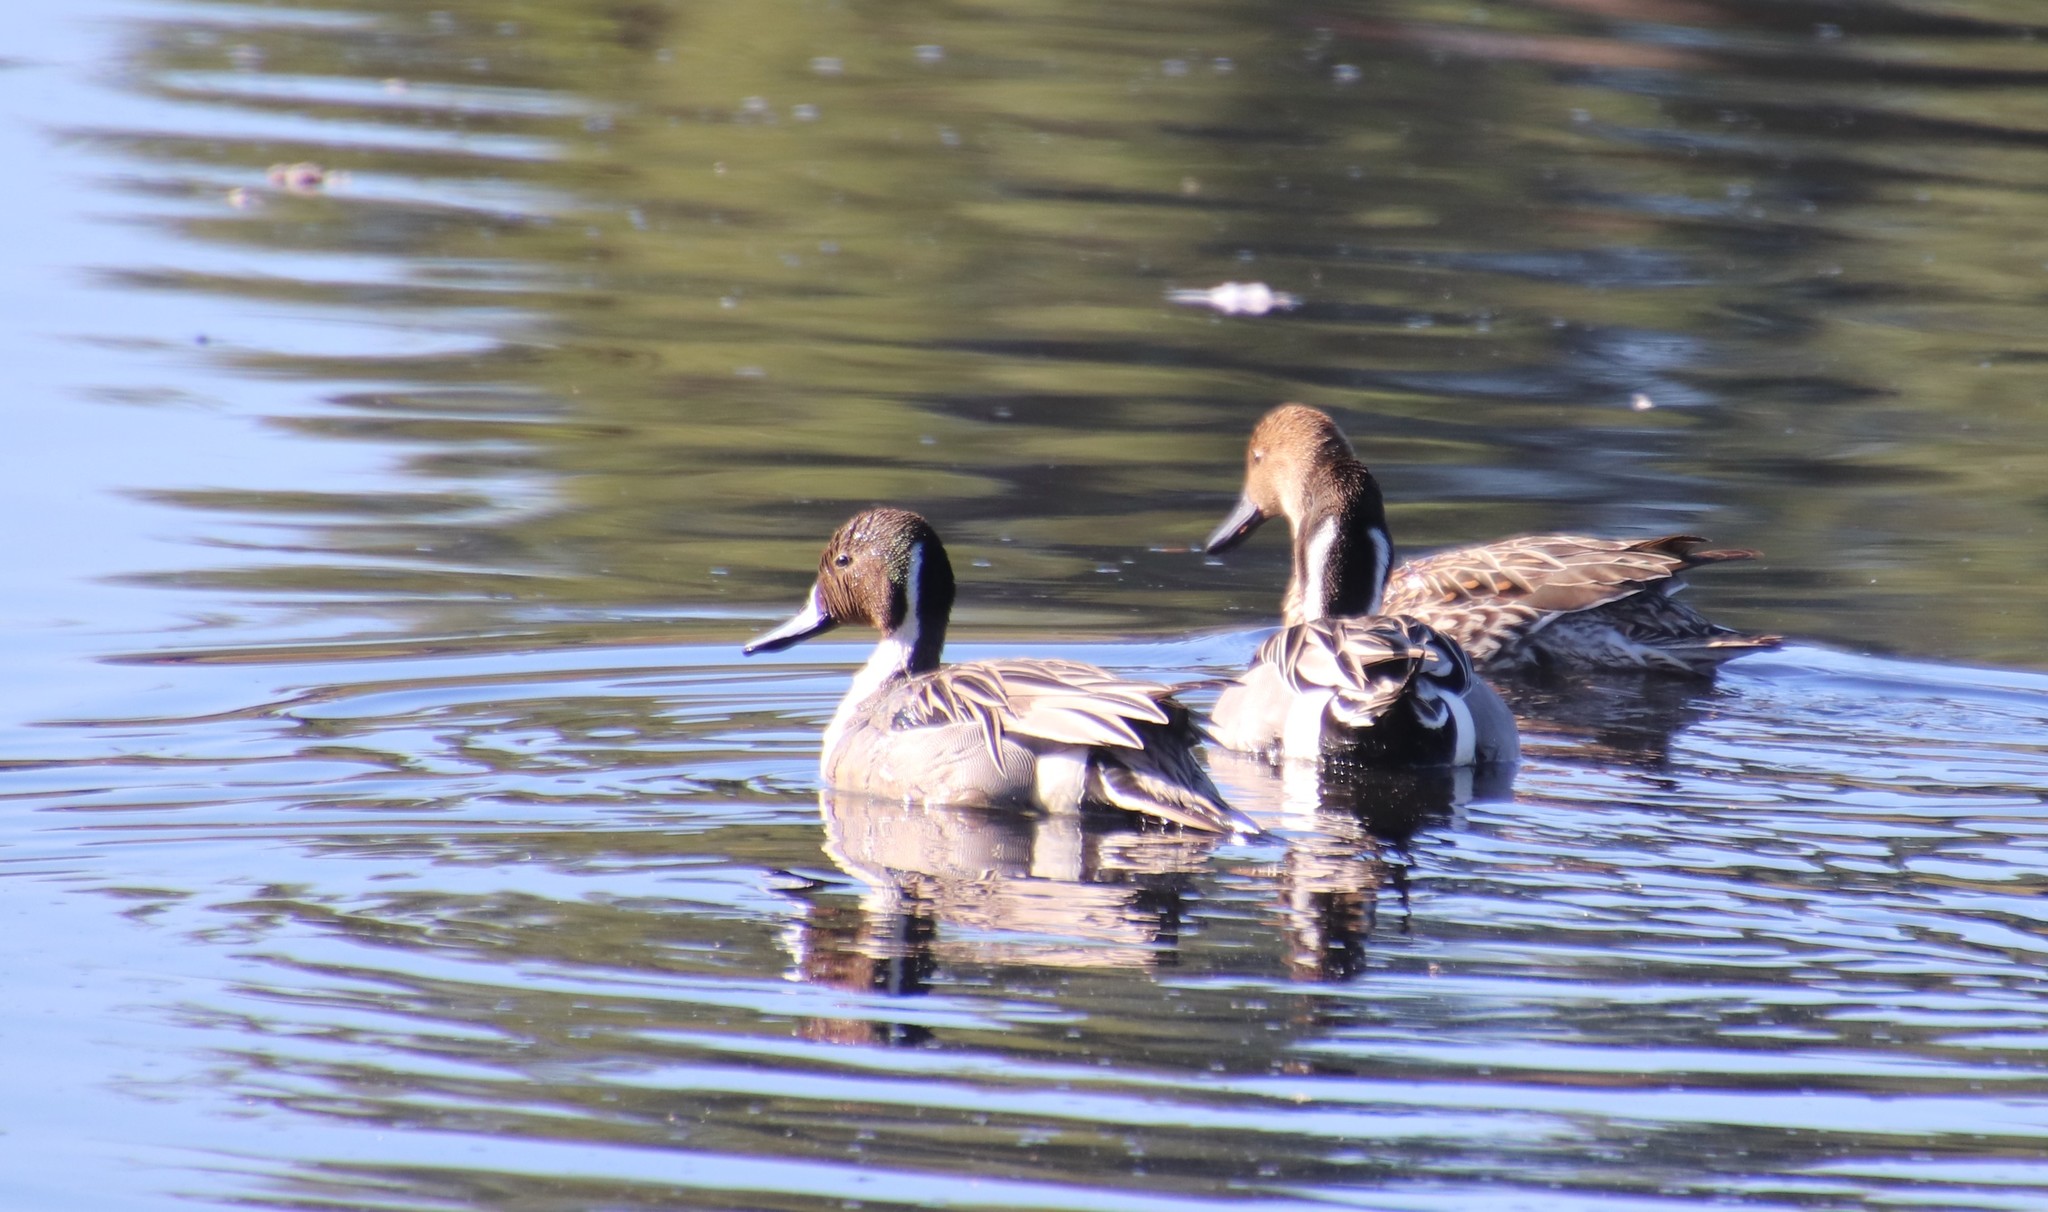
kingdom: Animalia
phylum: Chordata
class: Aves
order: Anseriformes
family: Anatidae
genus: Anas
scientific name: Anas acuta
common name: Northern pintail
